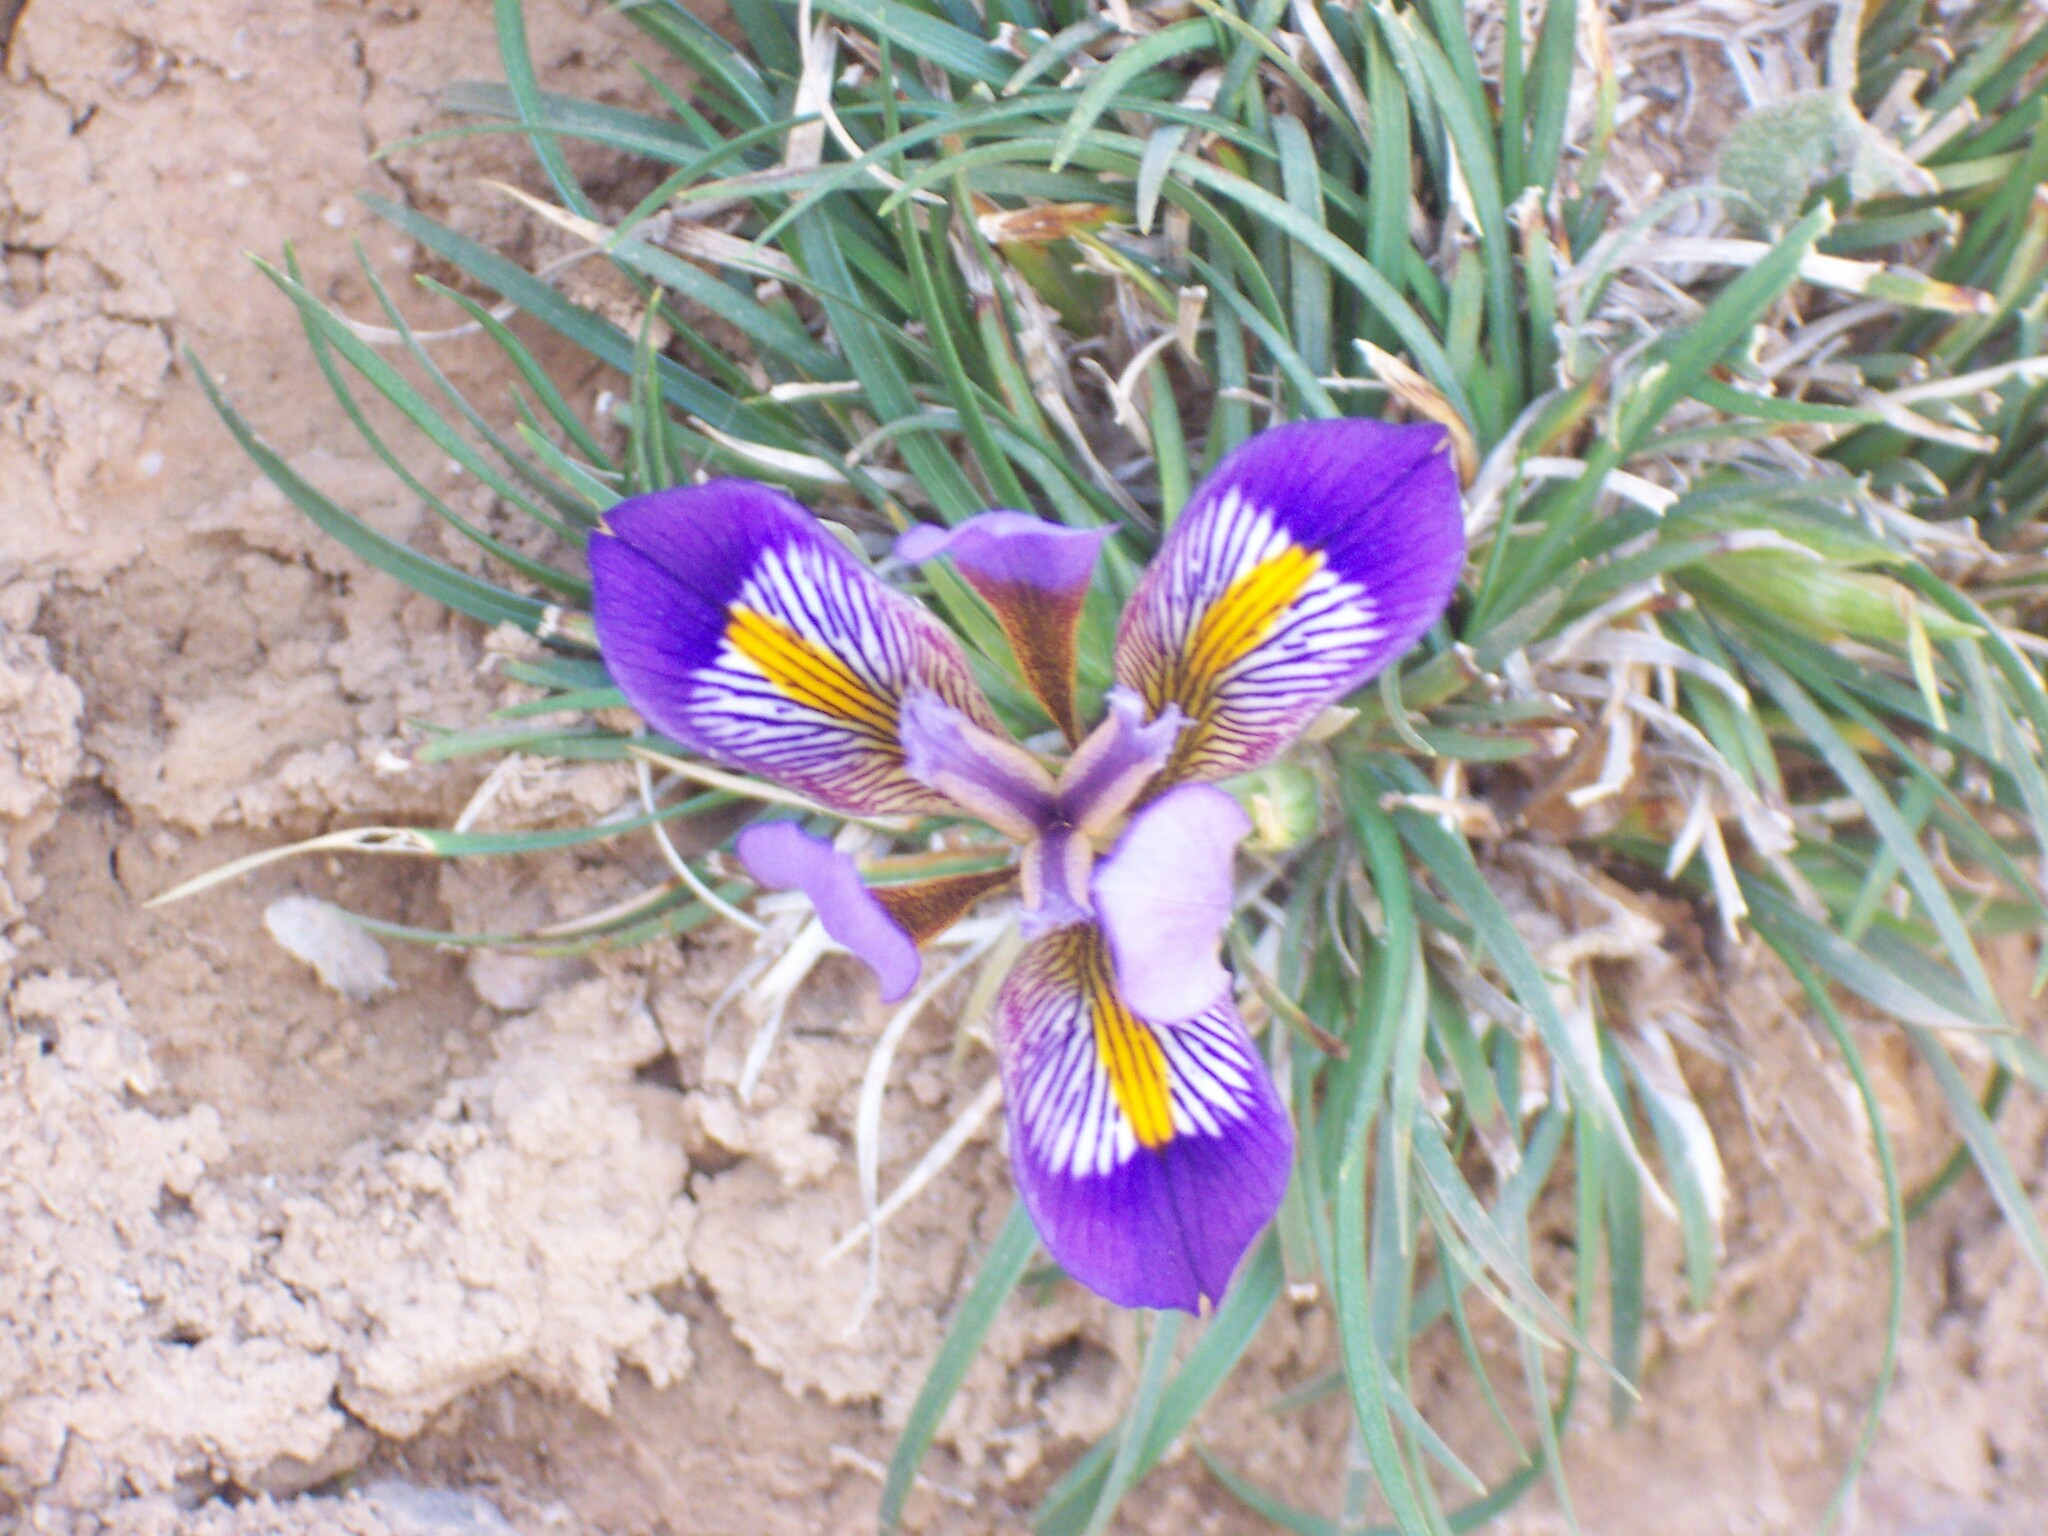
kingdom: Plantae
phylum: Tracheophyta
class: Liliopsida
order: Asparagales
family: Iridaceae
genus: Iris
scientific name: Iris unguicularis
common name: Algerian iris
